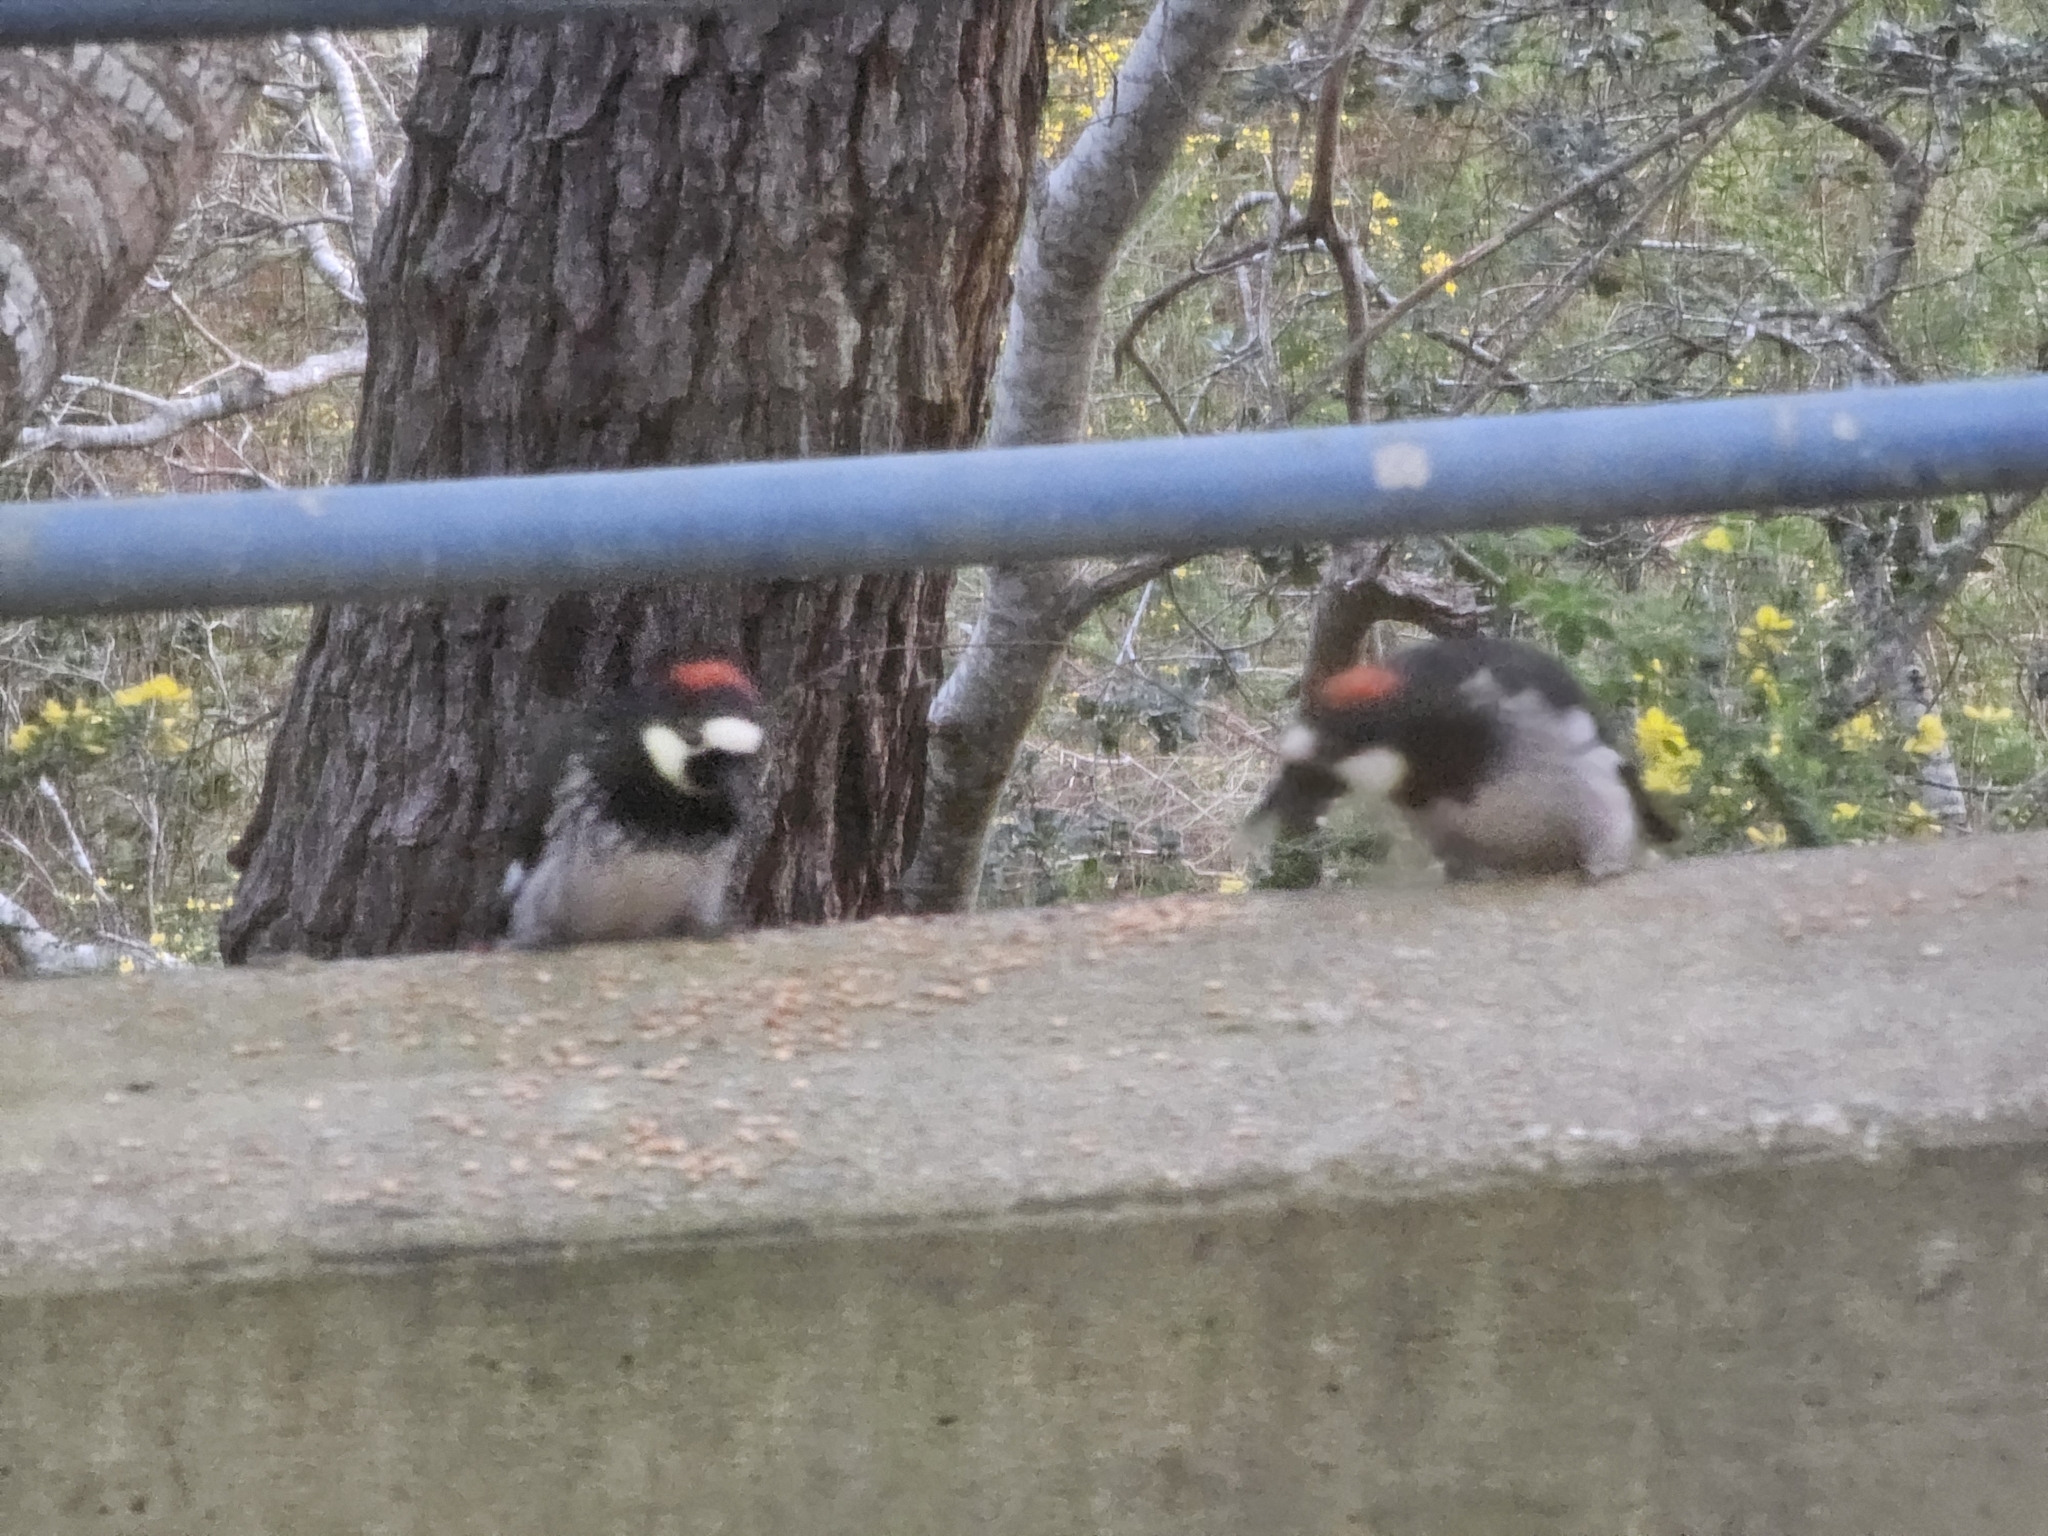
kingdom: Animalia
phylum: Chordata
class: Aves
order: Piciformes
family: Picidae
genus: Melanerpes
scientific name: Melanerpes formicivorus
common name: Acorn woodpecker
